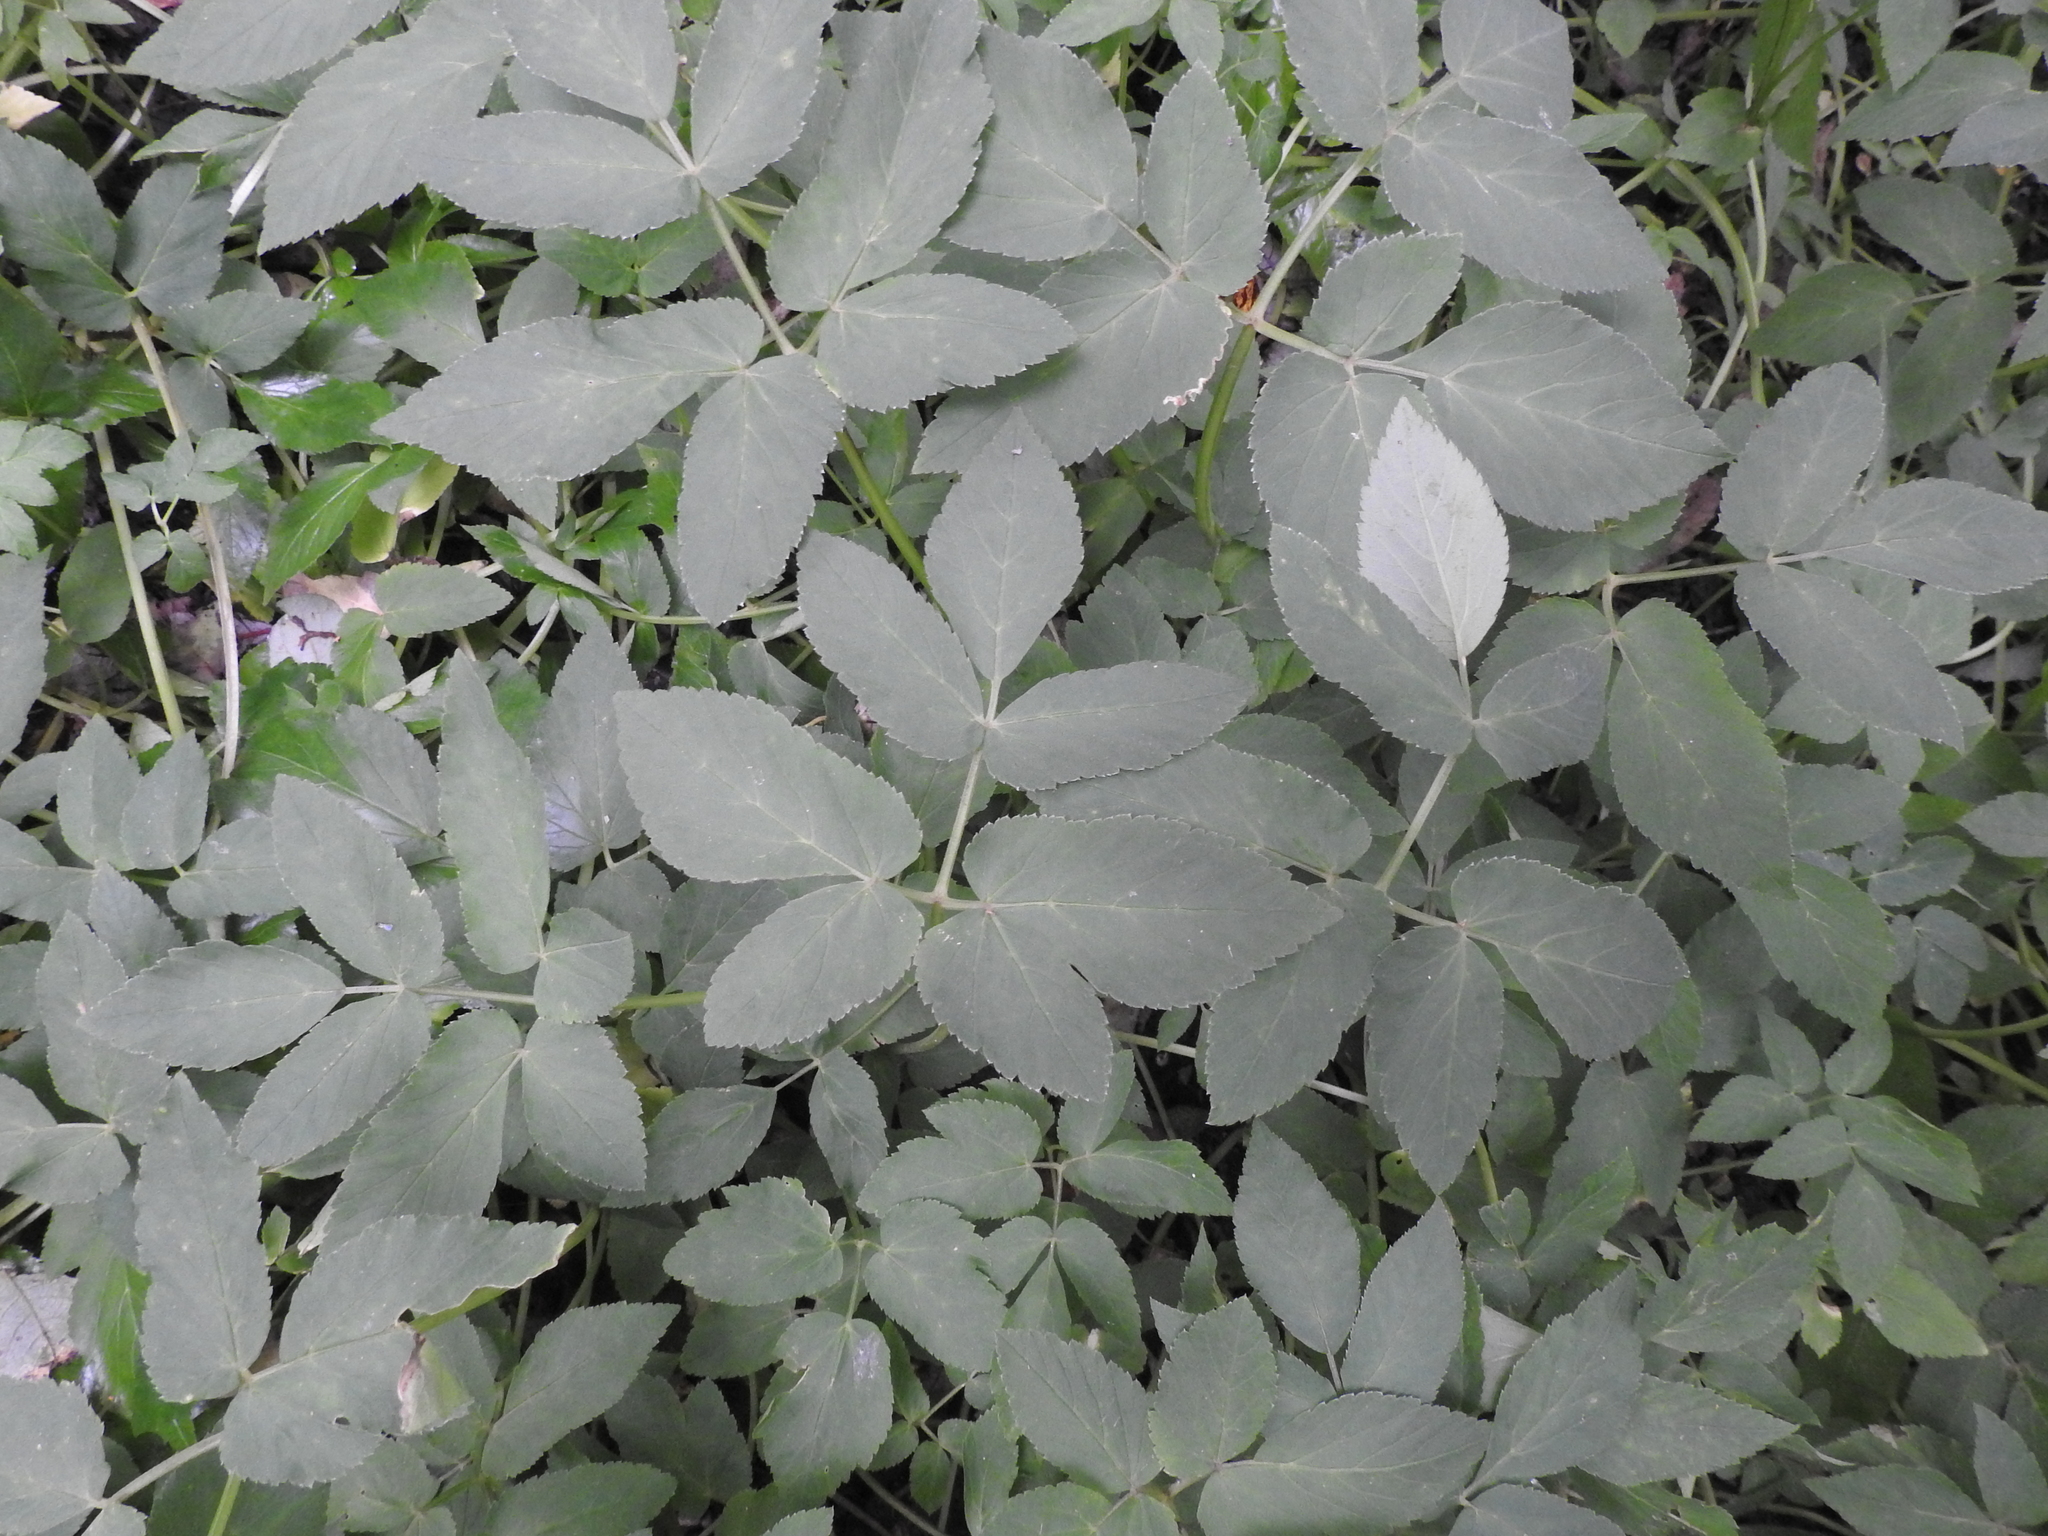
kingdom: Plantae
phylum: Tracheophyta
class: Magnoliopsida
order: Apiales
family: Apiaceae
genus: Aegopodium
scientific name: Aegopodium podagraria
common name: Ground-elder
